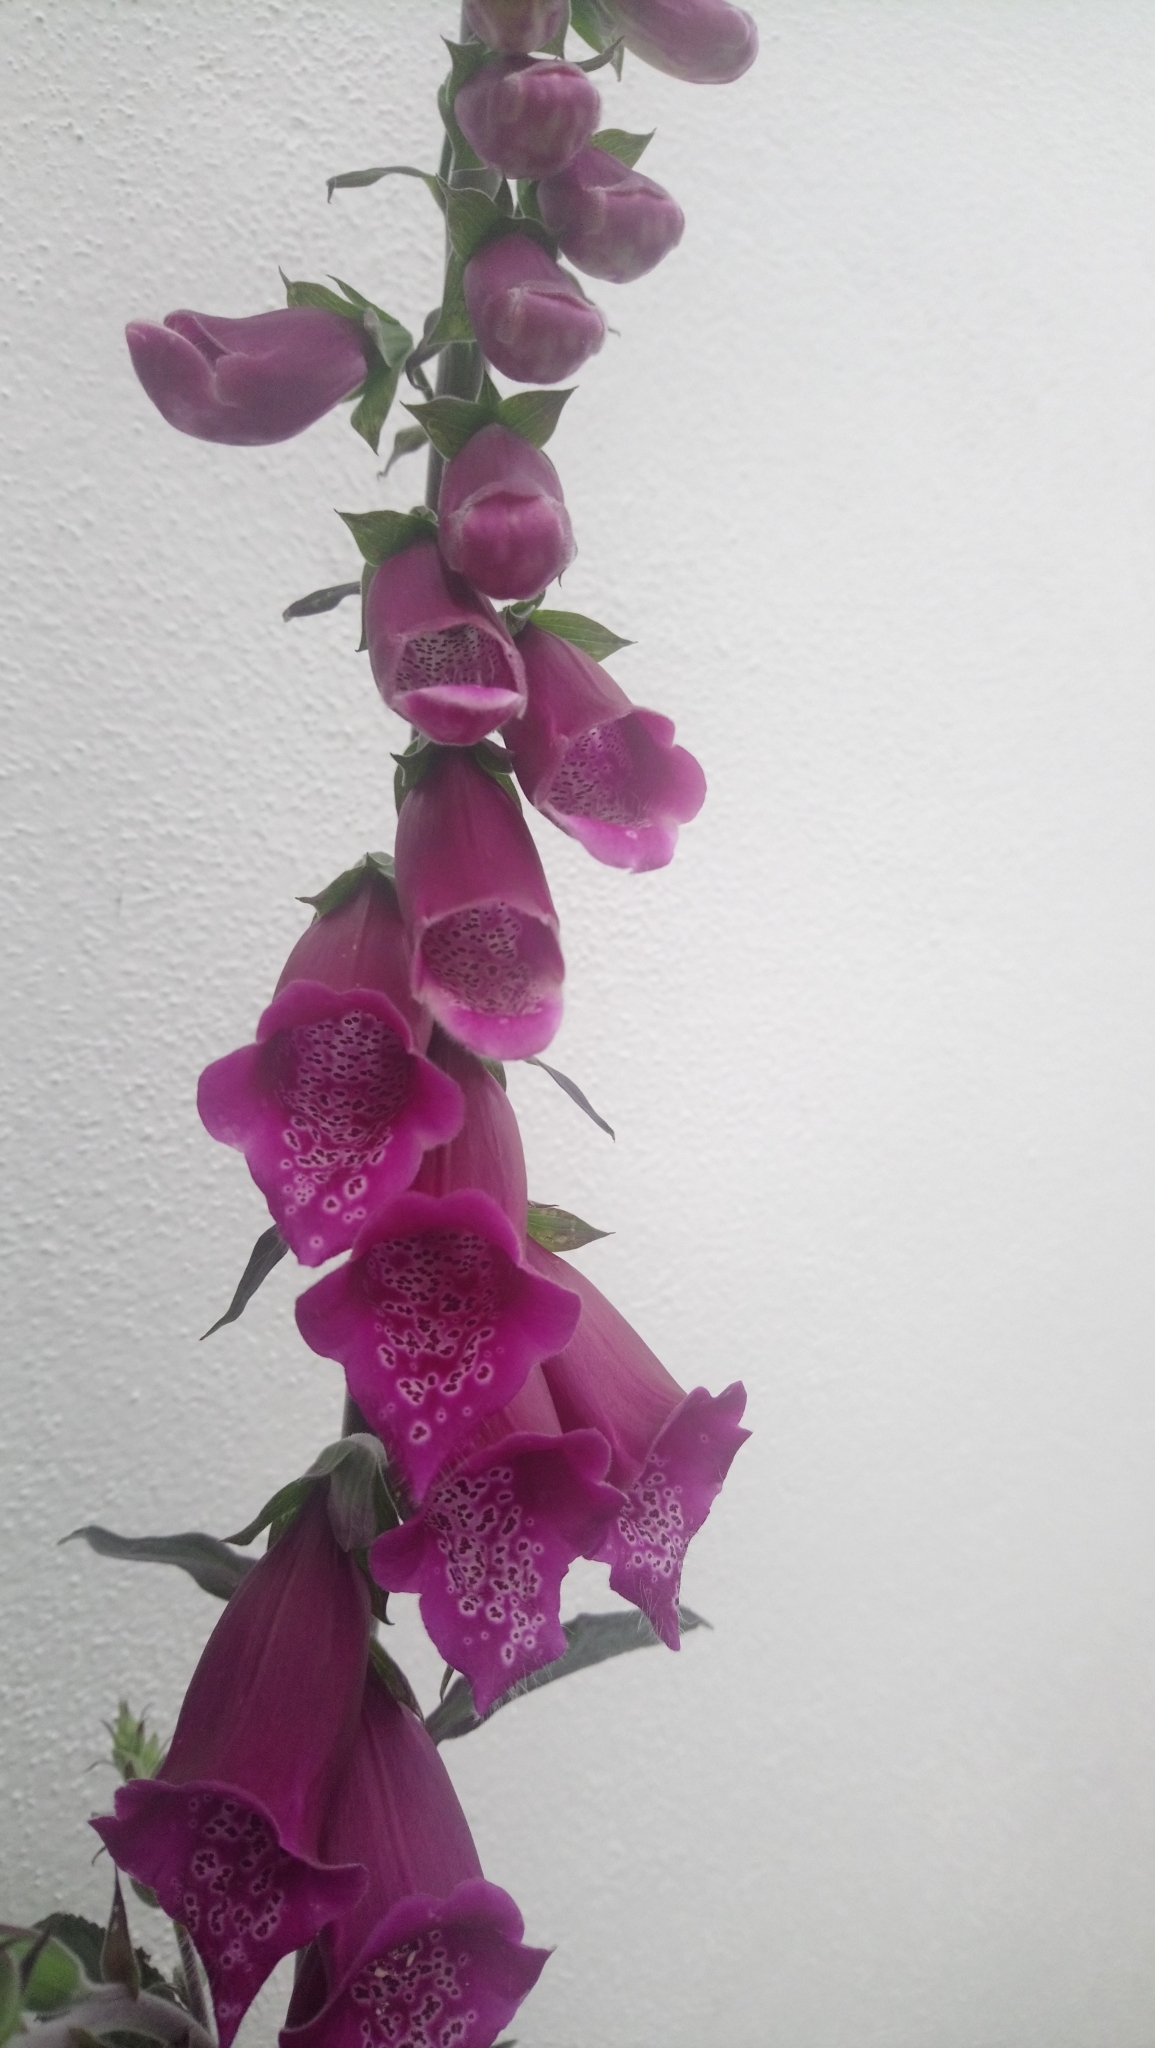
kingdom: Plantae
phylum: Tracheophyta
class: Magnoliopsida
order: Lamiales
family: Plantaginaceae
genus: Digitalis
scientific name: Digitalis purpurea
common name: Foxglove
